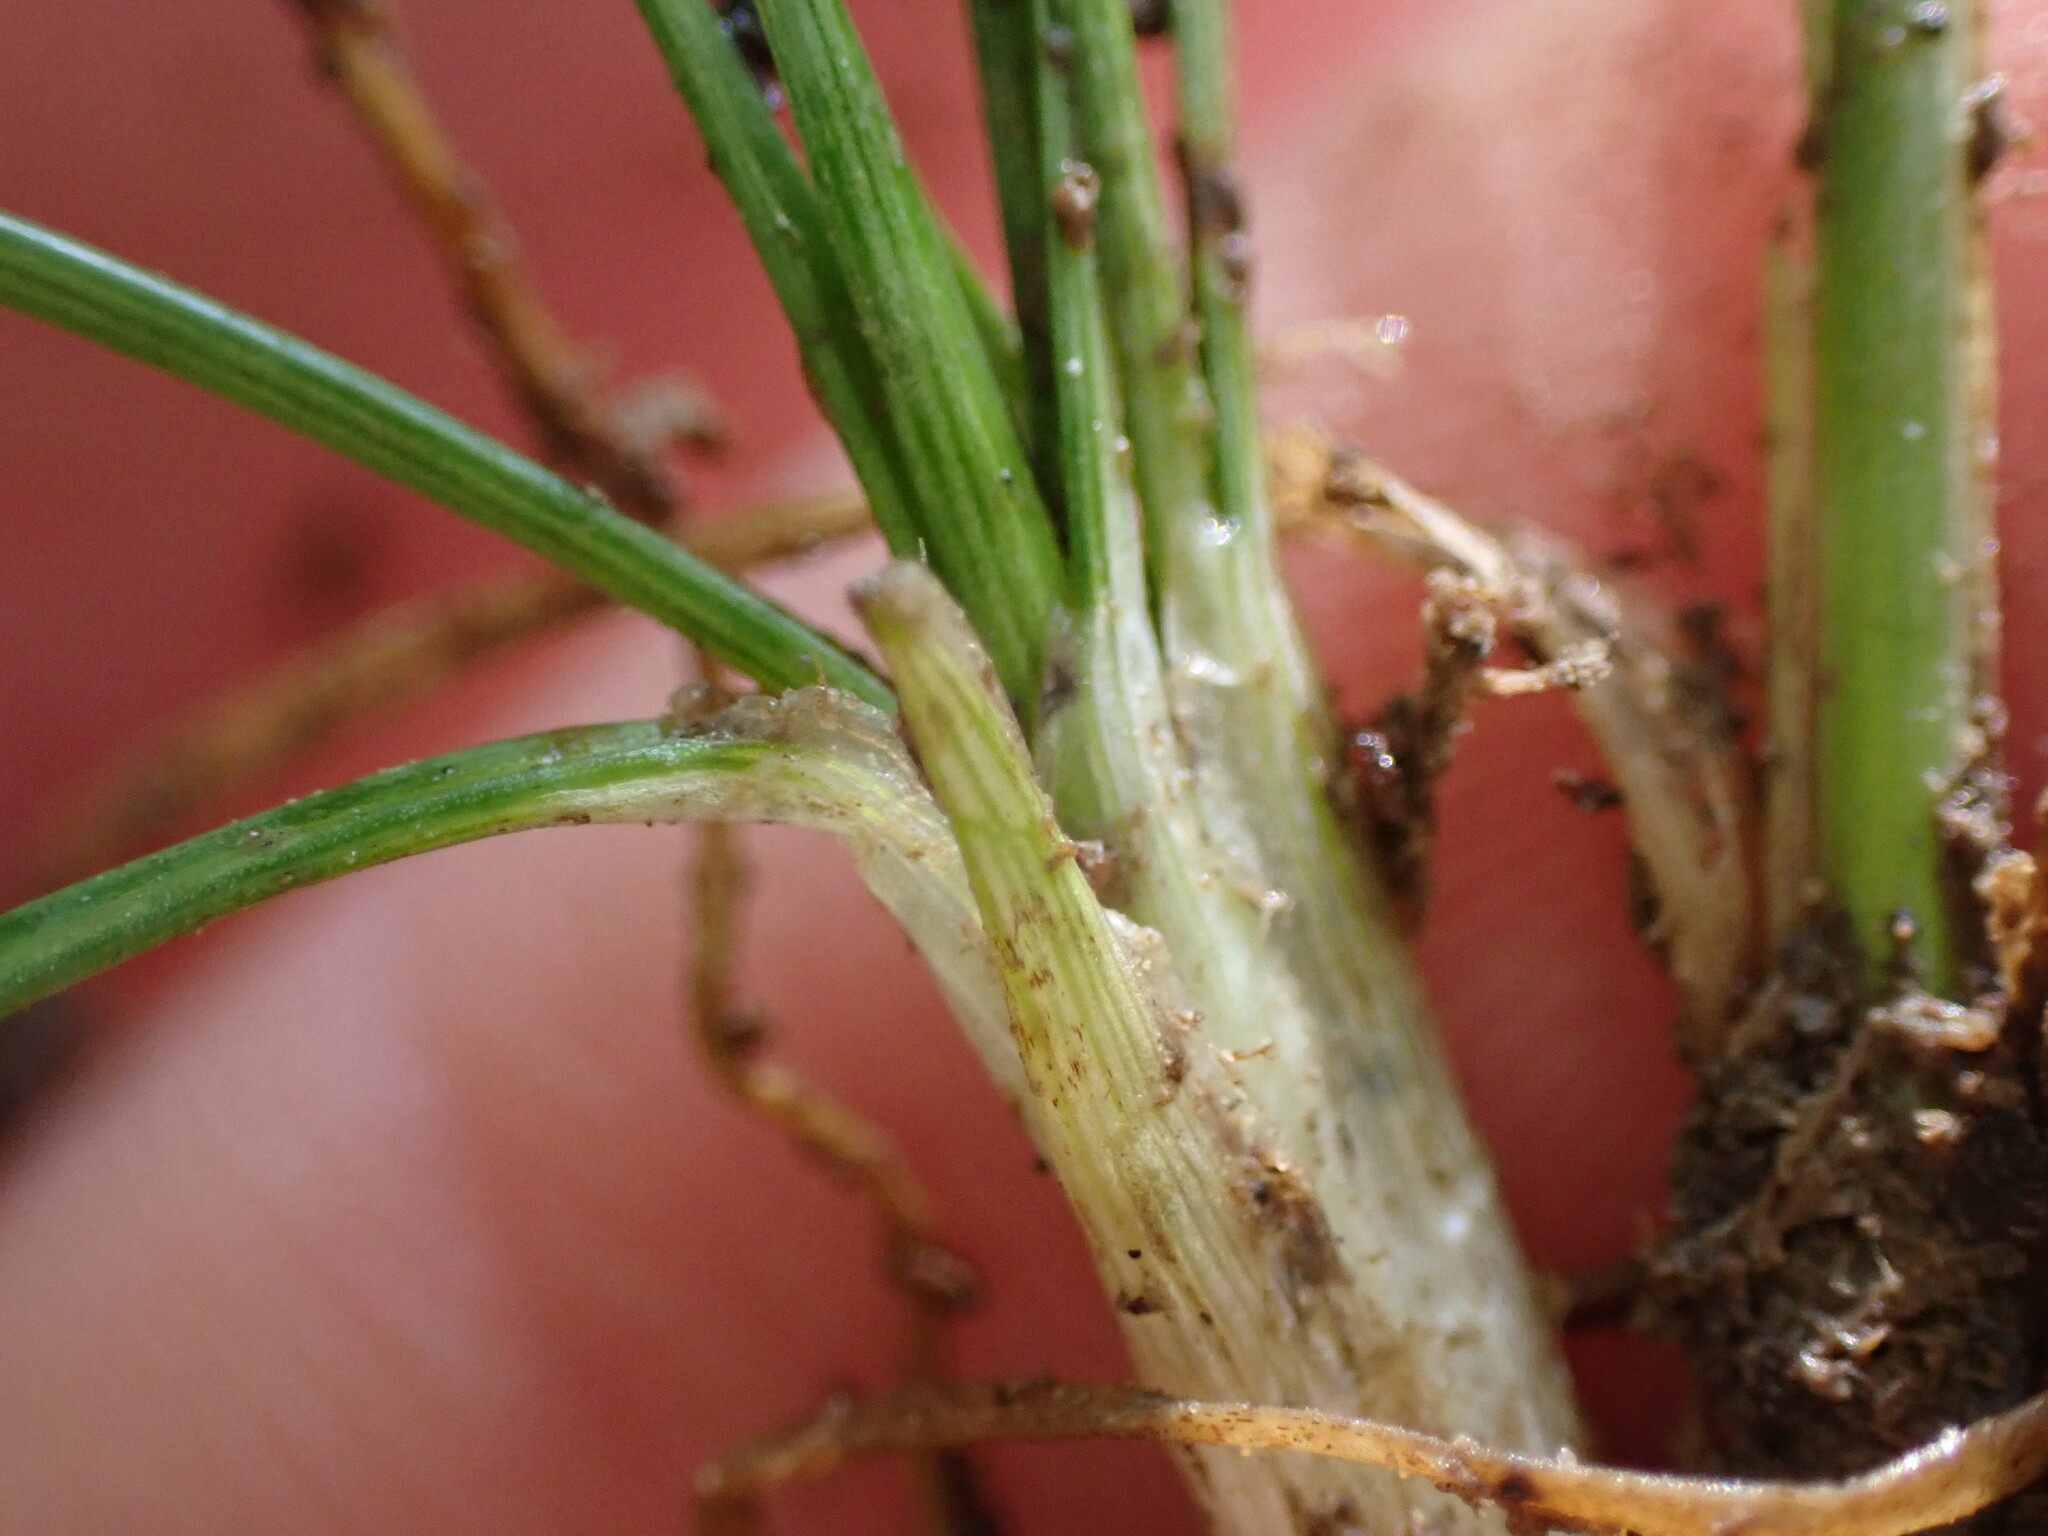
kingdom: Plantae
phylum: Tracheophyta
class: Liliopsida
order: Poales
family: Juncaceae
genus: Juncus
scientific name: Juncus tenuis
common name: Slender rush
